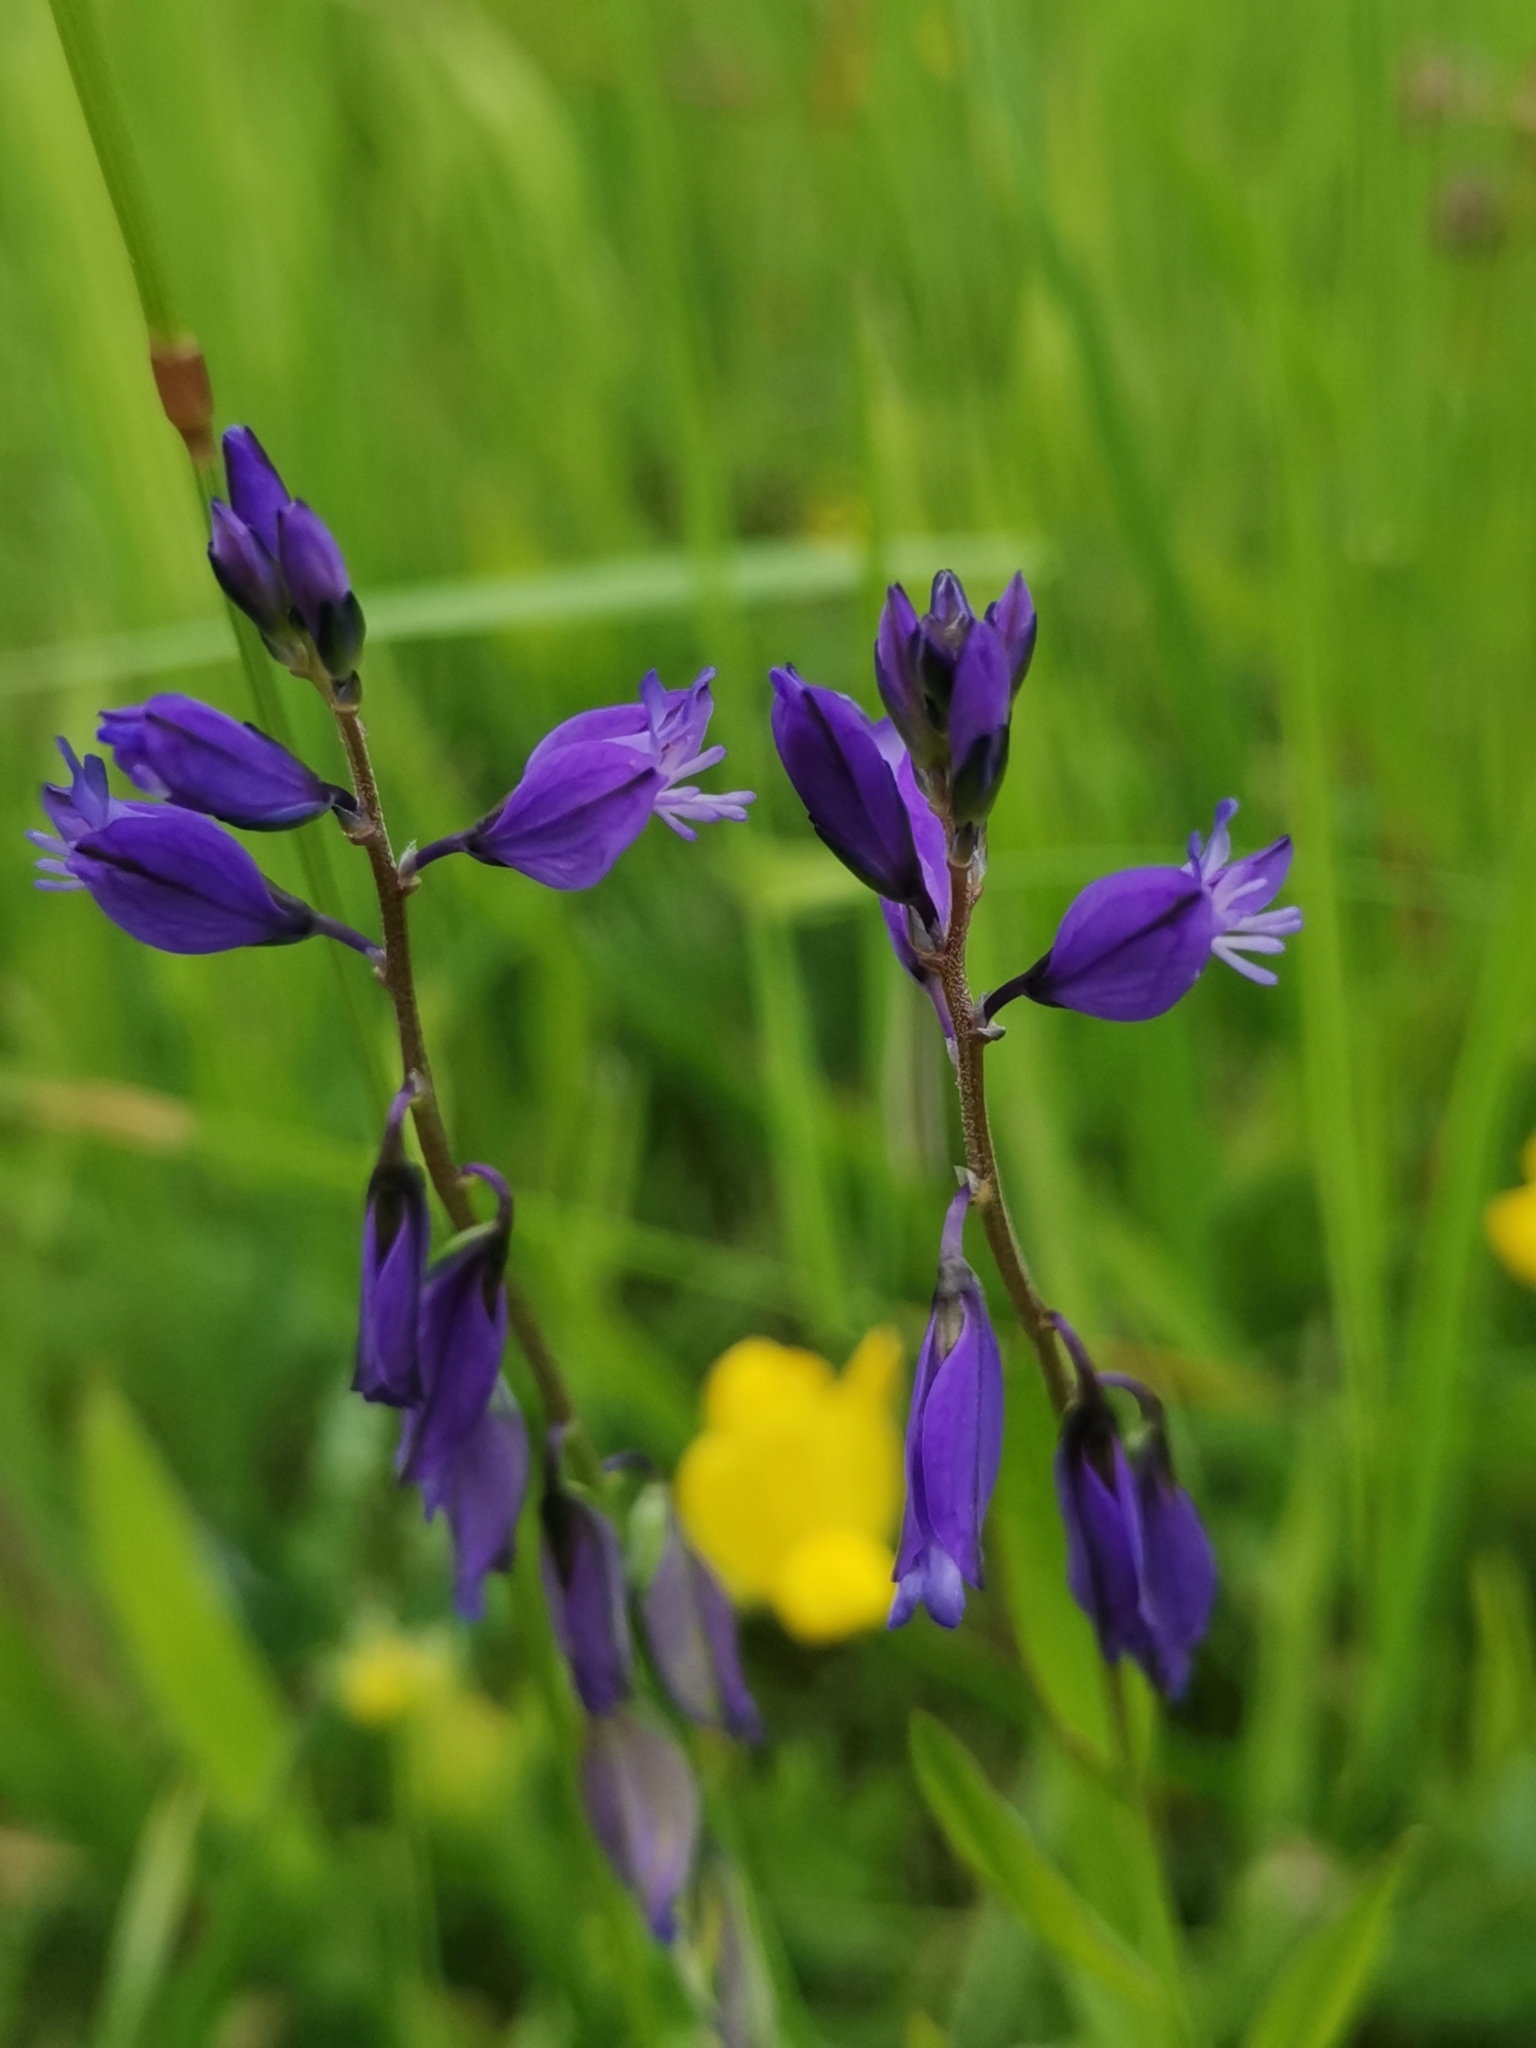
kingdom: Plantae
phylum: Tracheophyta
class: Magnoliopsida
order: Fabales
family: Polygalaceae
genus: Polygala
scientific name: Polygala vulgaris
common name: Common milkwort
